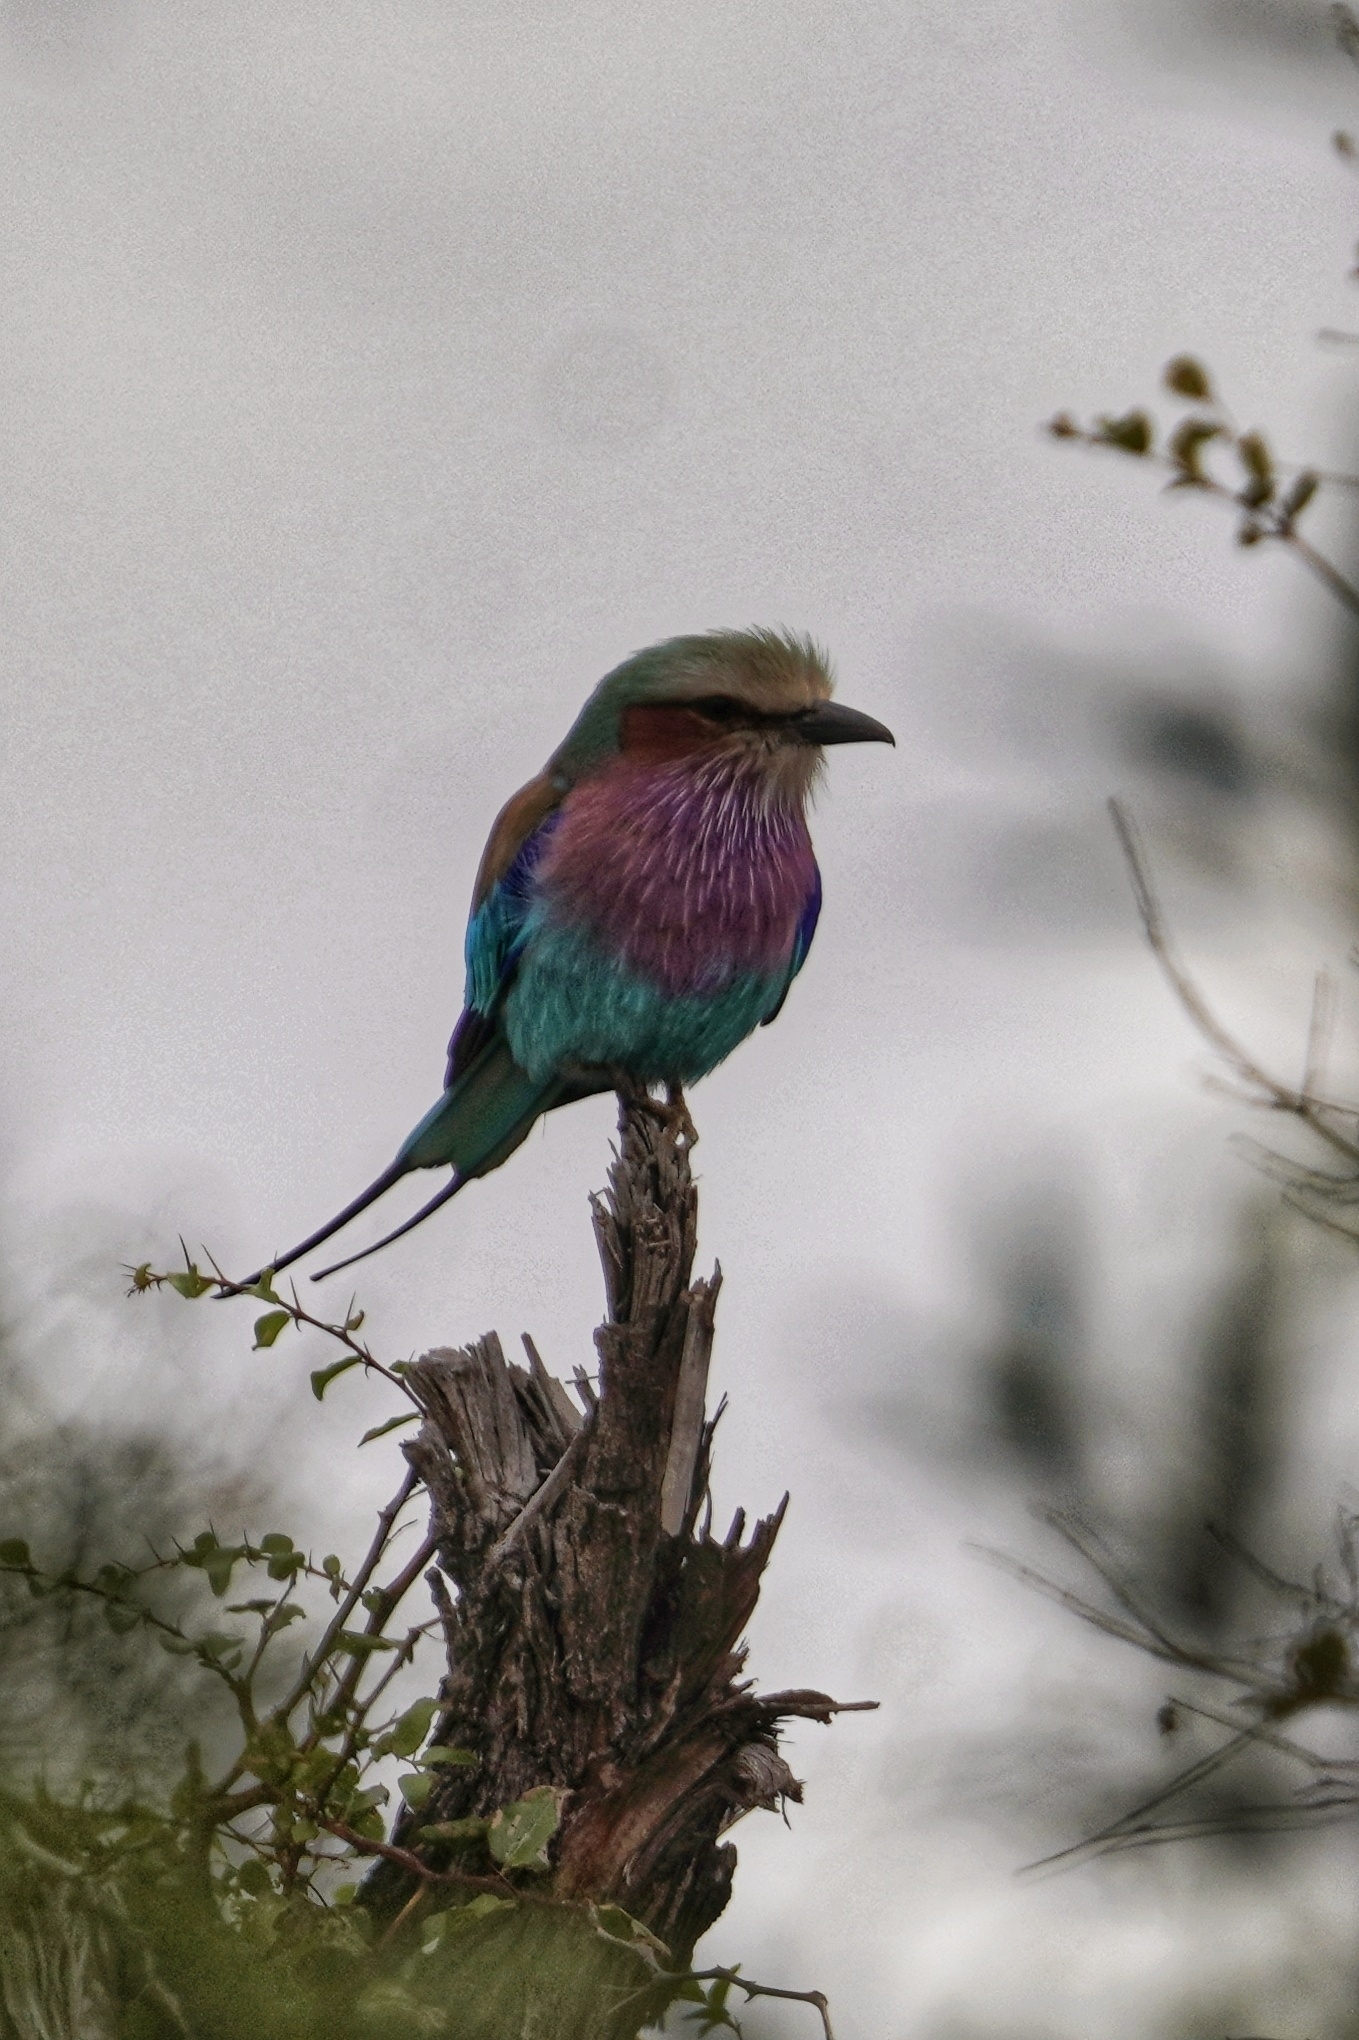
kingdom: Animalia
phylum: Chordata
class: Aves
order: Coraciiformes
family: Coraciidae
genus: Coracias
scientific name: Coracias caudatus
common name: Lilac-breasted roller
